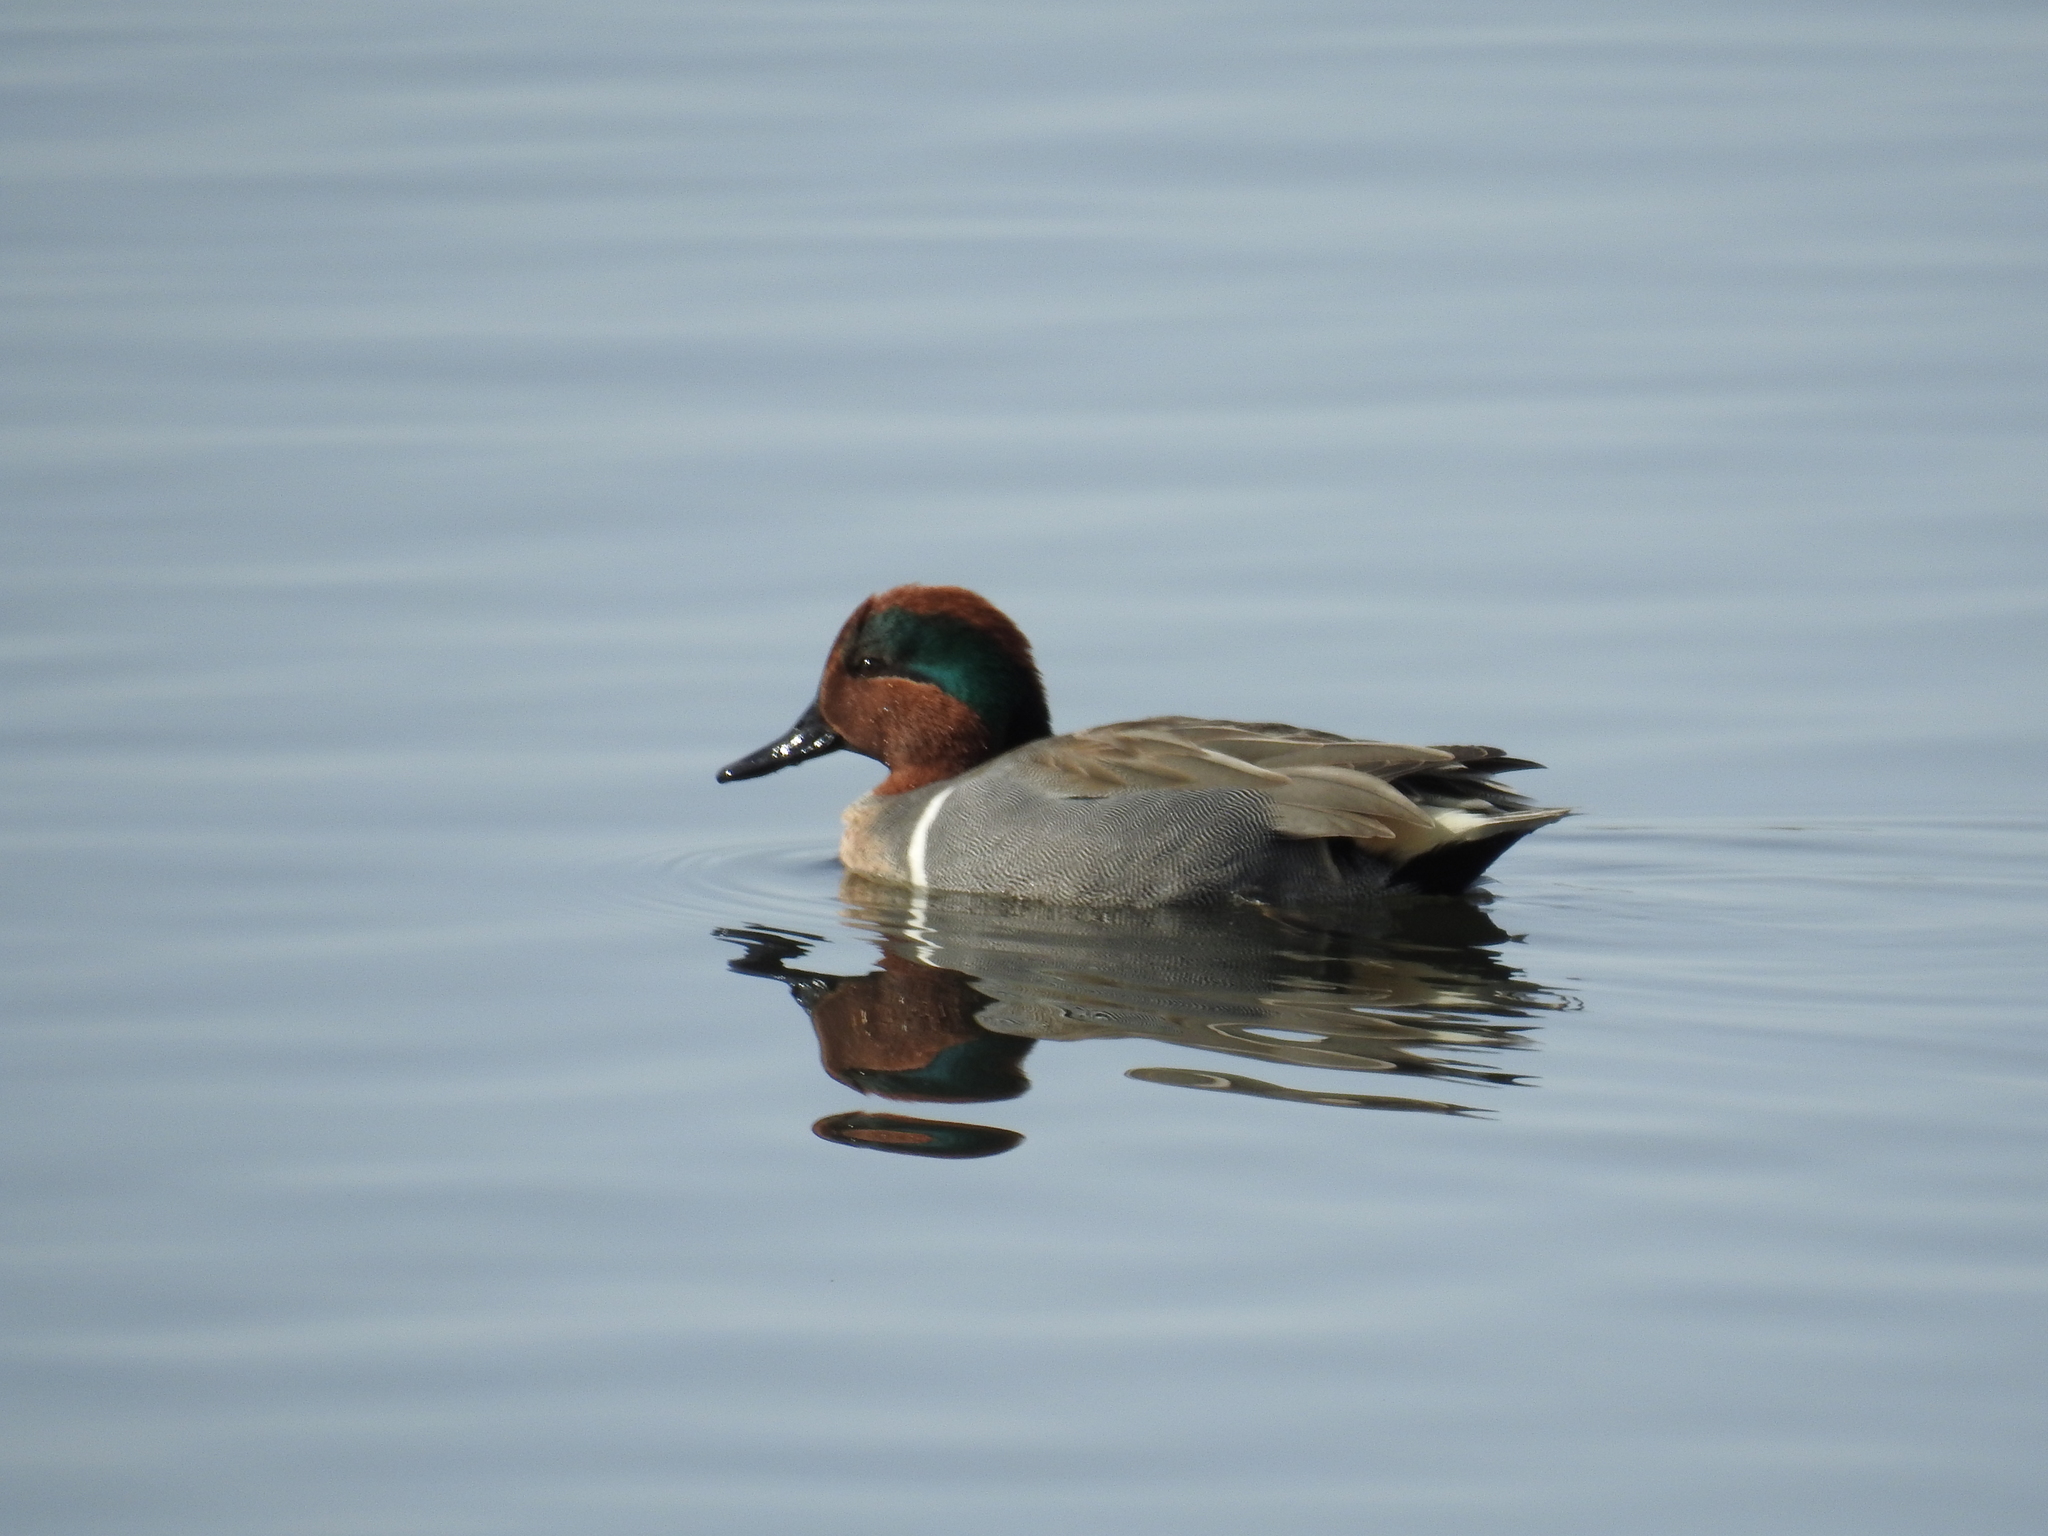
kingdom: Animalia
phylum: Chordata
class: Aves
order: Anseriformes
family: Anatidae
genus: Anas
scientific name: Anas crecca
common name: Eurasian teal
